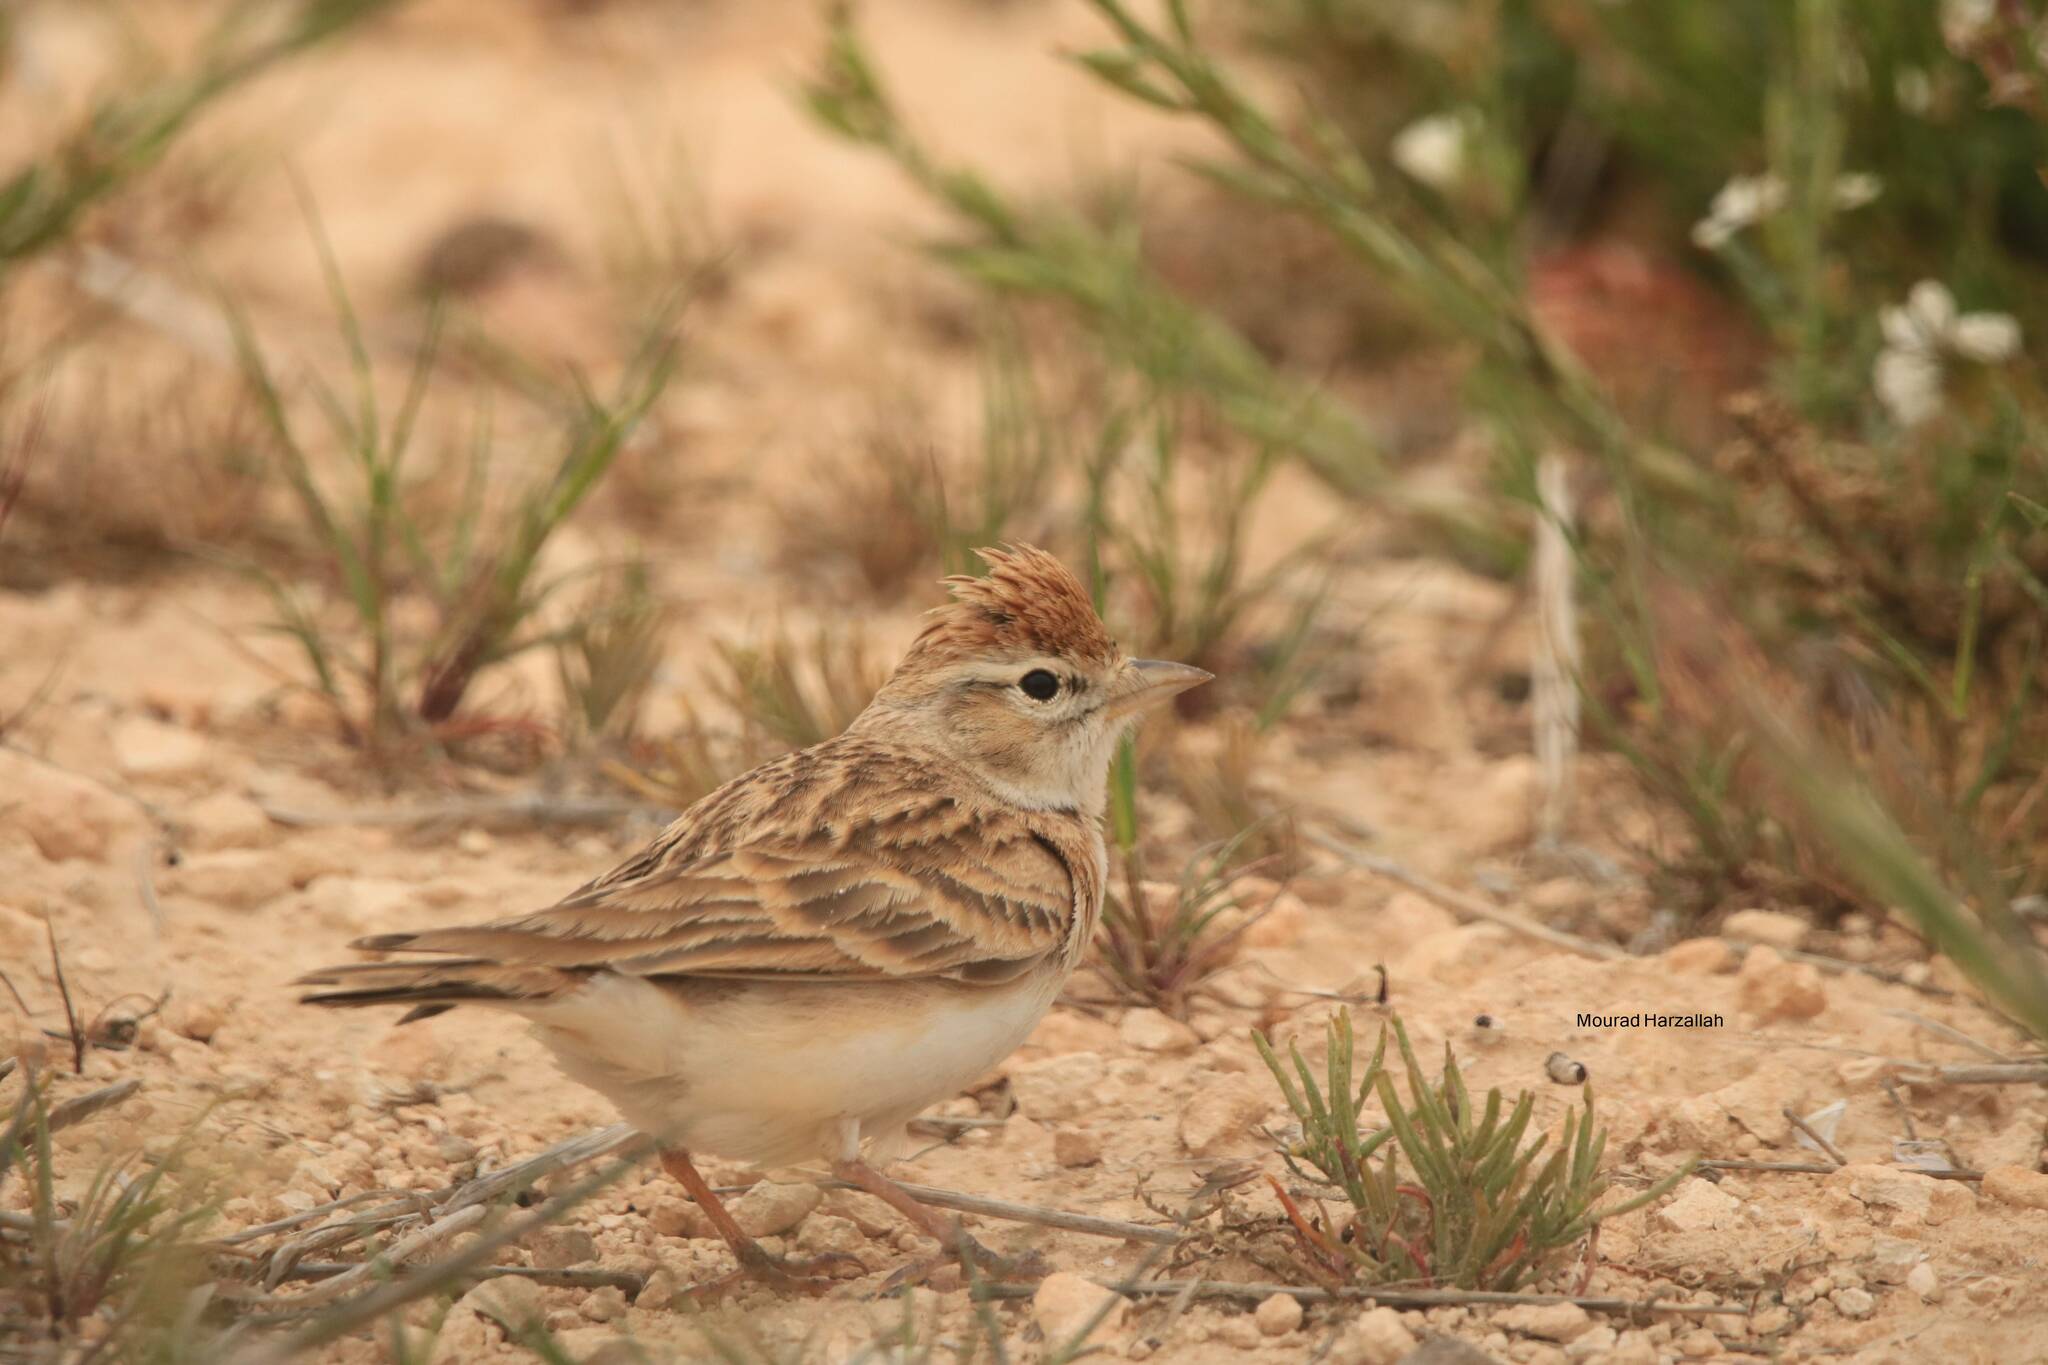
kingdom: Animalia
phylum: Chordata
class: Aves
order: Passeriformes
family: Alaudidae
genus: Calandrella
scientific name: Calandrella brachydactyla
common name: Greater short-toed lark
